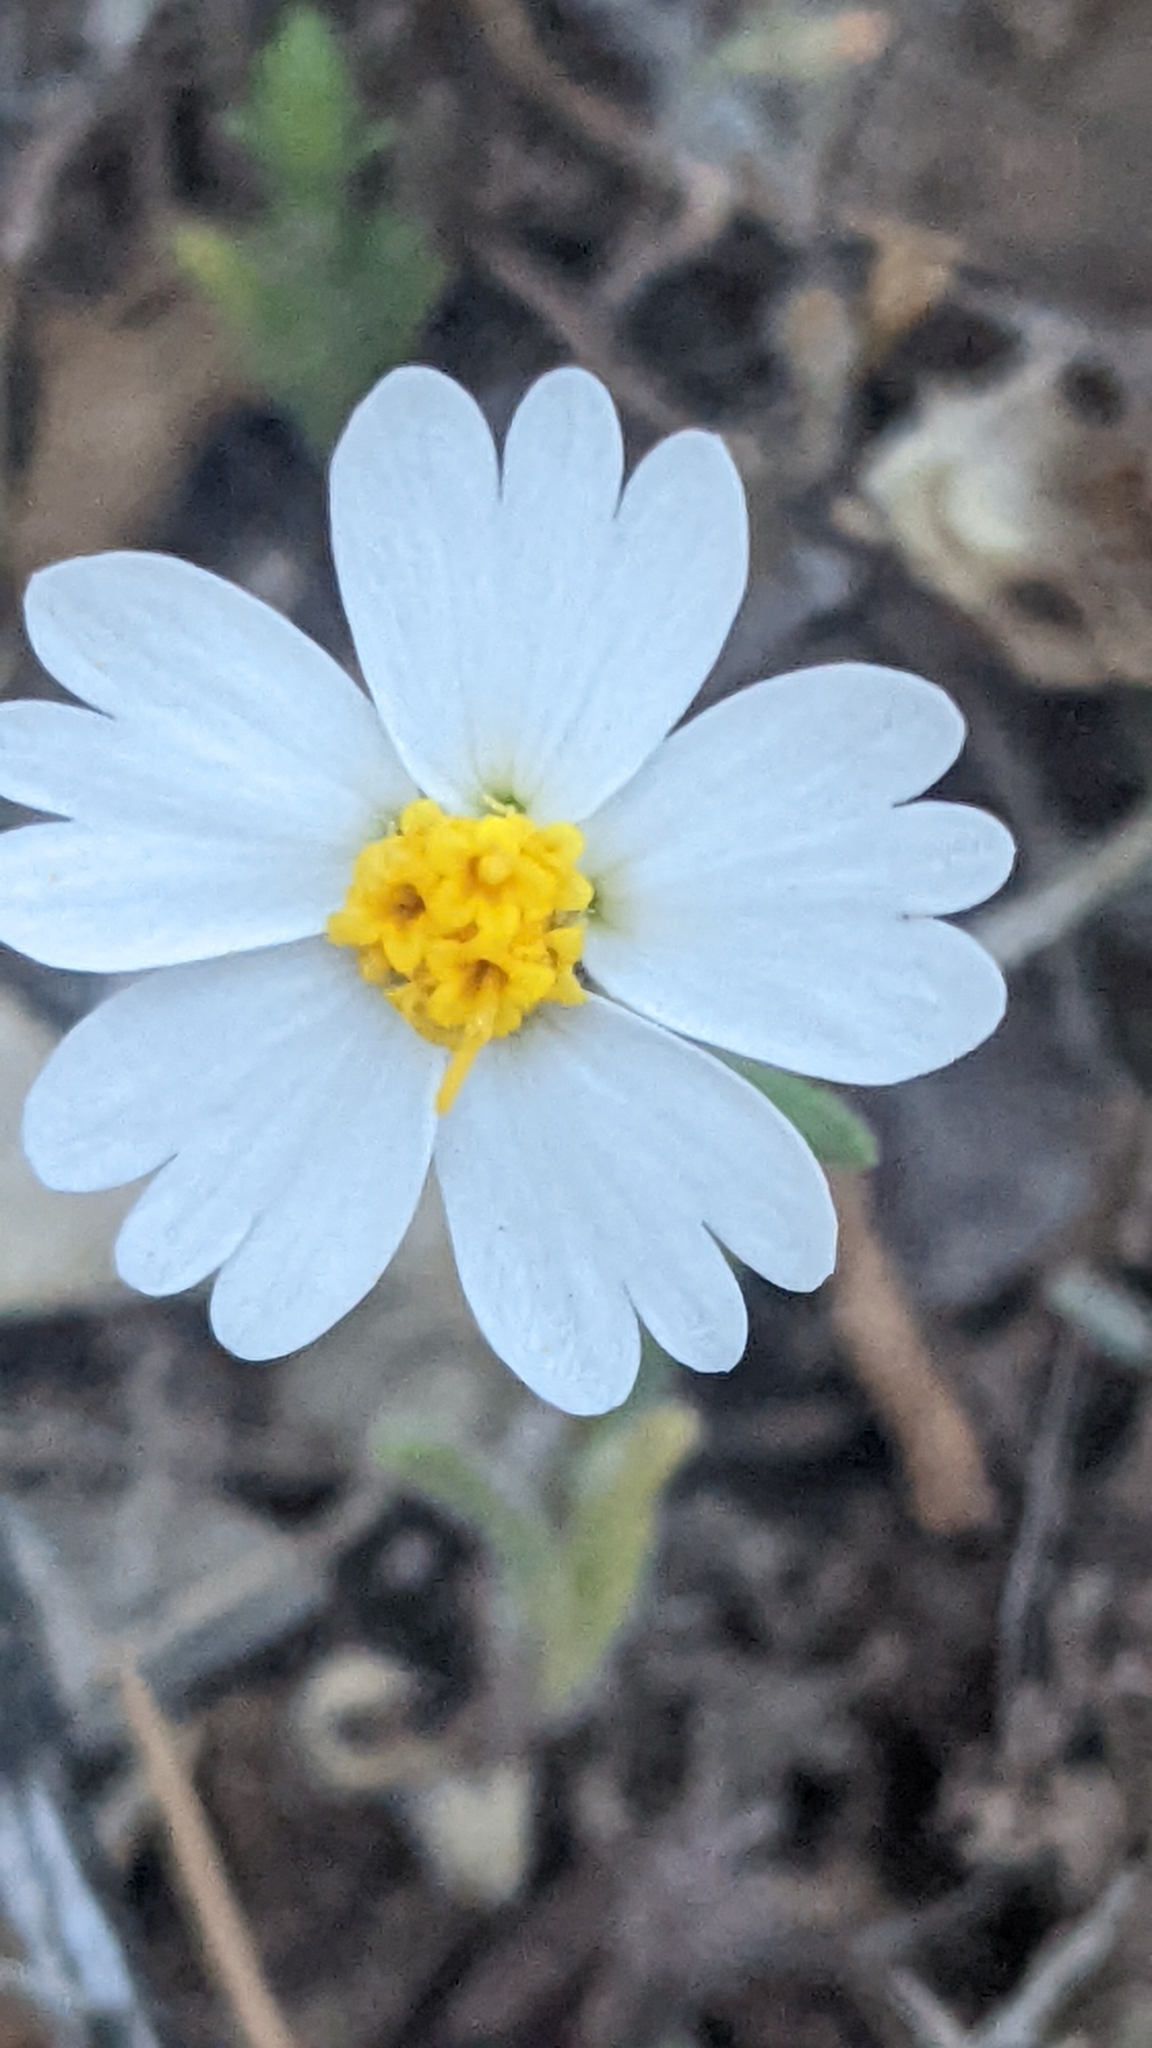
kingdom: Plantae
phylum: Tracheophyta
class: Magnoliopsida
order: Asterales
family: Asteraceae
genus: Layia
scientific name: Layia glandulosa
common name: White layia
